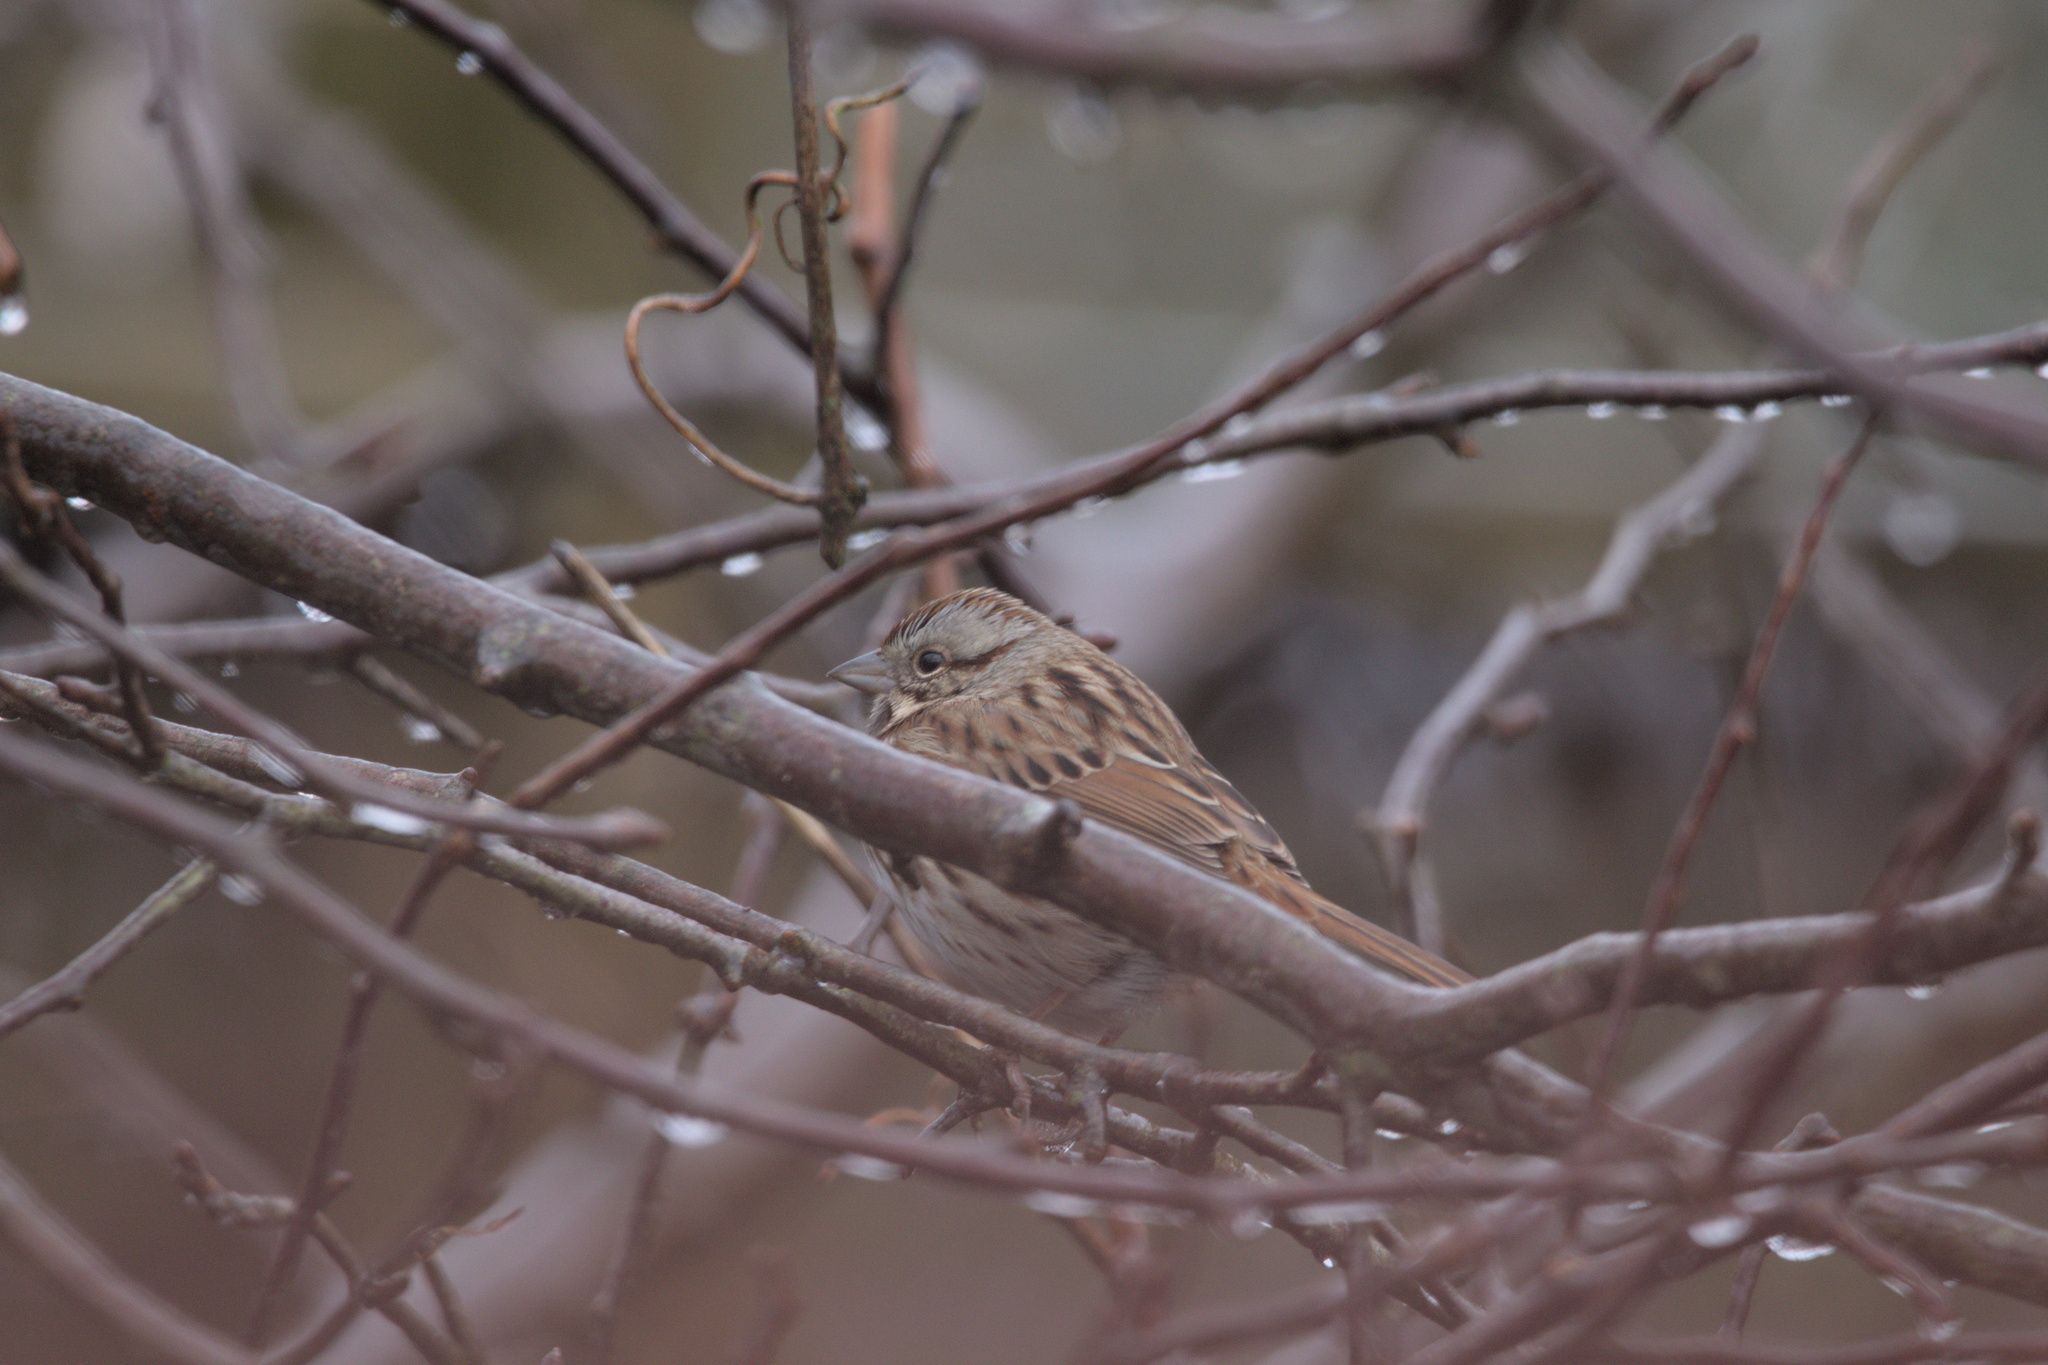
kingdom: Animalia
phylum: Chordata
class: Aves
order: Passeriformes
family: Passerellidae
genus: Melospiza
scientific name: Melospiza melodia
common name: Song sparrow
